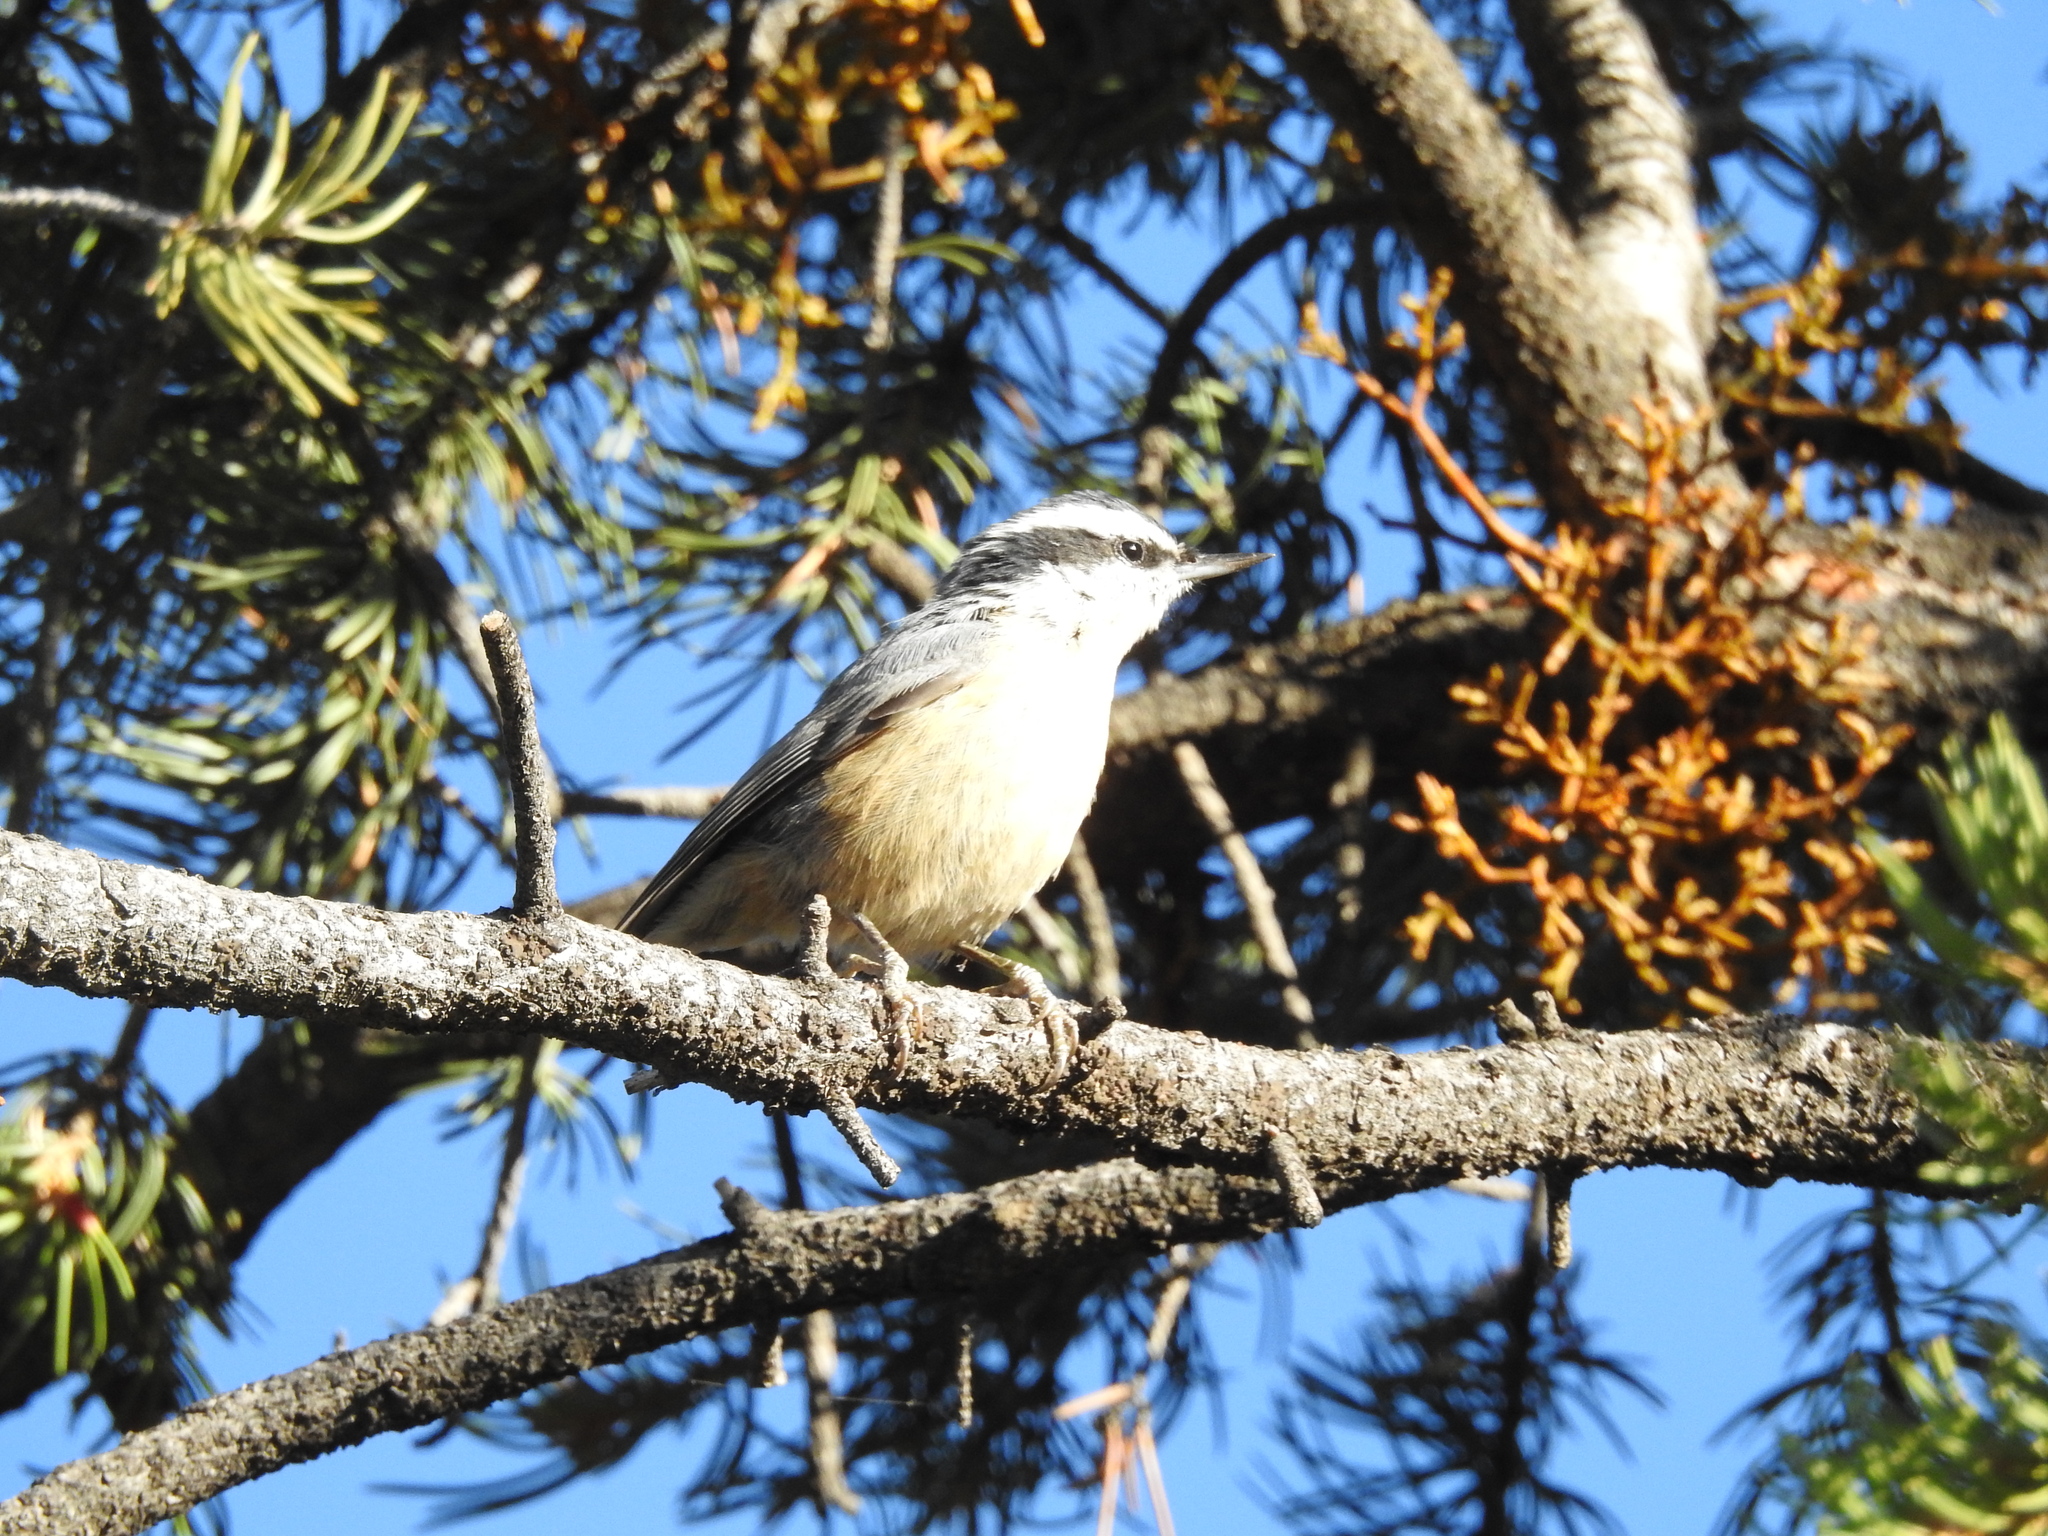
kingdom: Animalia
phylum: Chordata
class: Aves
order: Passeriformes
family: Sittidae
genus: Sitta
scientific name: Sitta canadensis
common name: Red-breasted nuthatch
